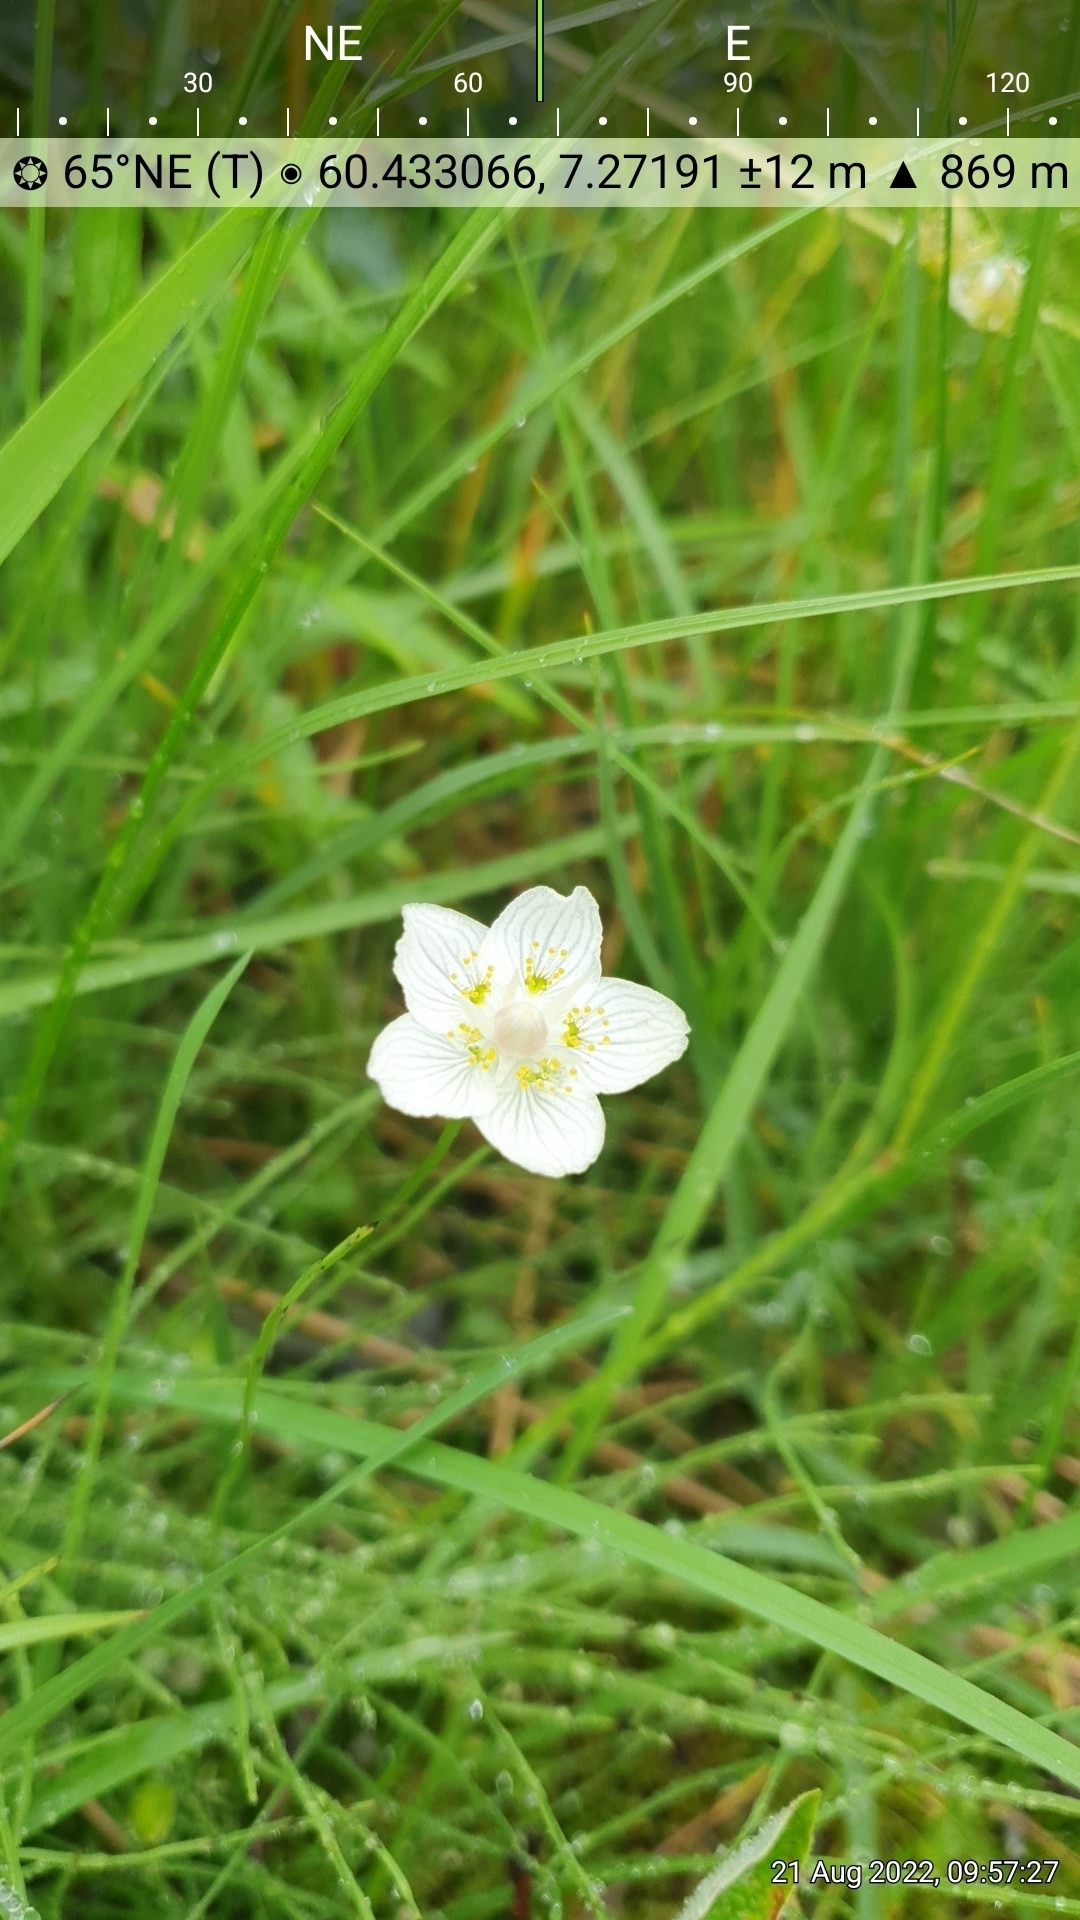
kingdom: Plantae
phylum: Tracheophyta
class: Magnoliopsida
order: Celastrales
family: Parnassiaceae
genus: Parnassia
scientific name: Parnassia palustris
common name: Grass-of-parnassus
